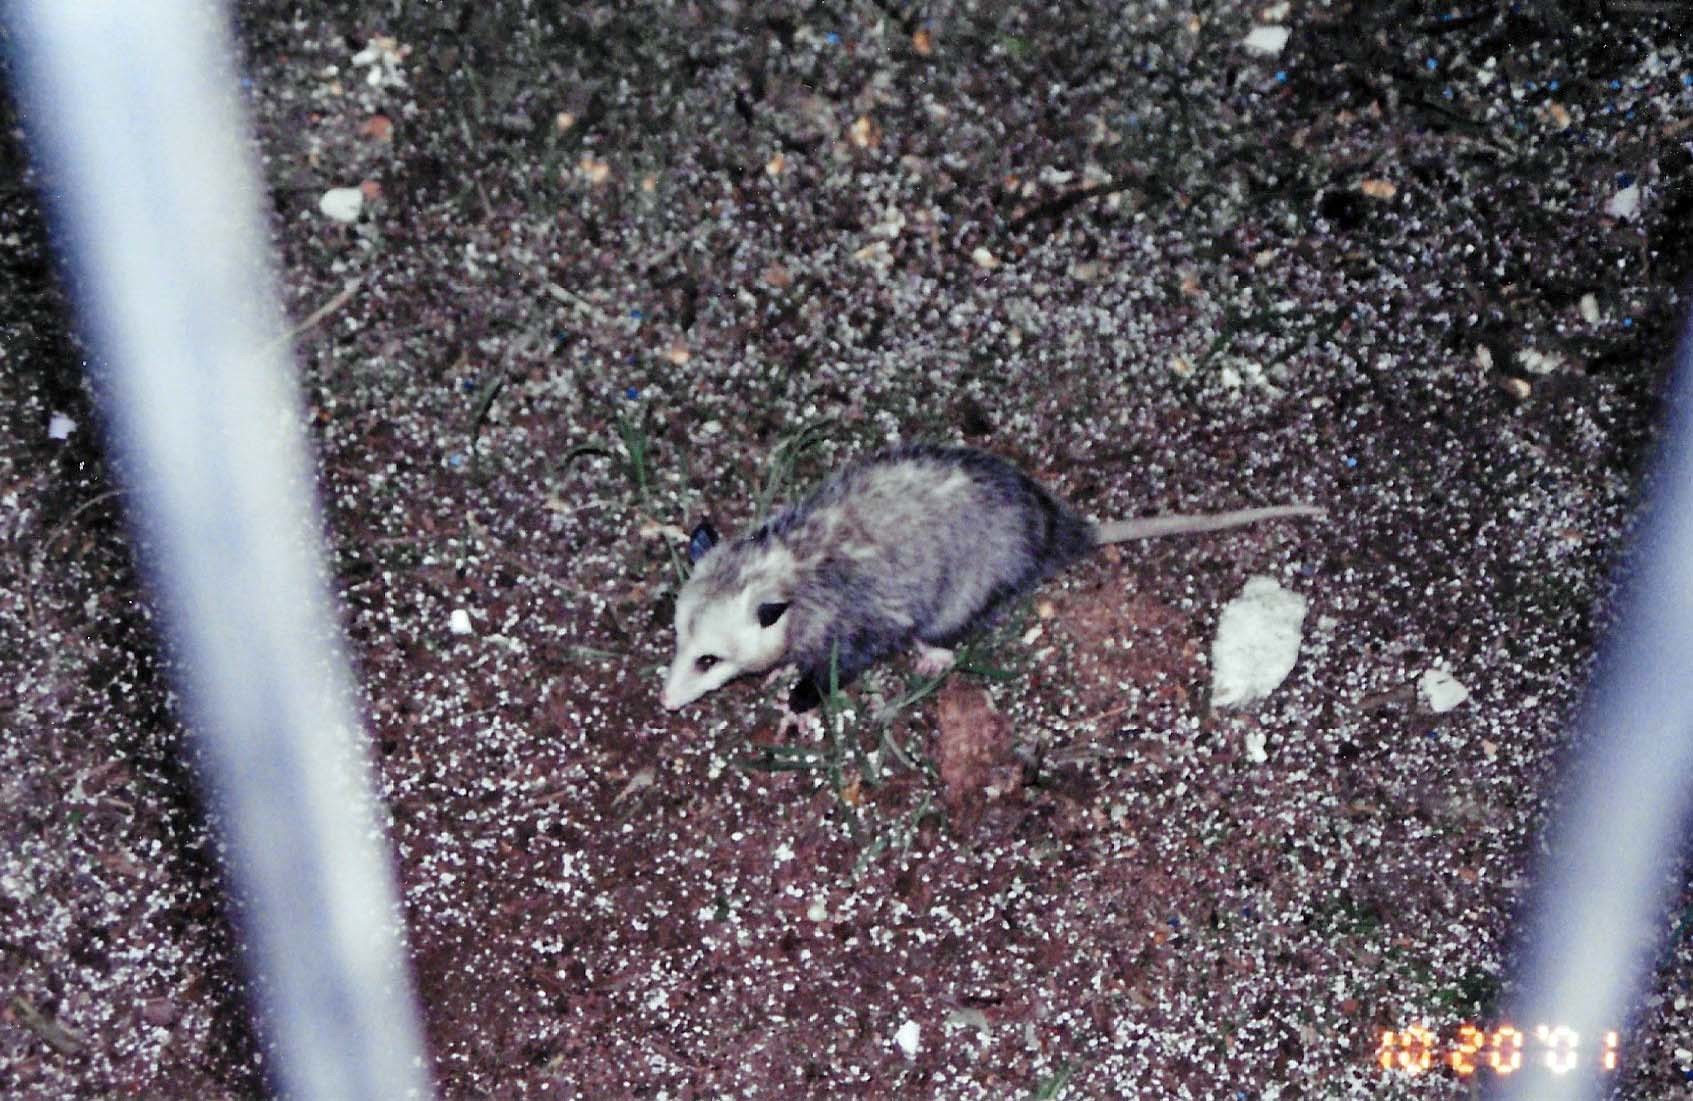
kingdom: Animalia
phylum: Chordata
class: Mammalia
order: Didelphimorphia
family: Didelphidae
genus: Didelphis
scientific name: Didelphis virginiana
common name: Virginia opossum
